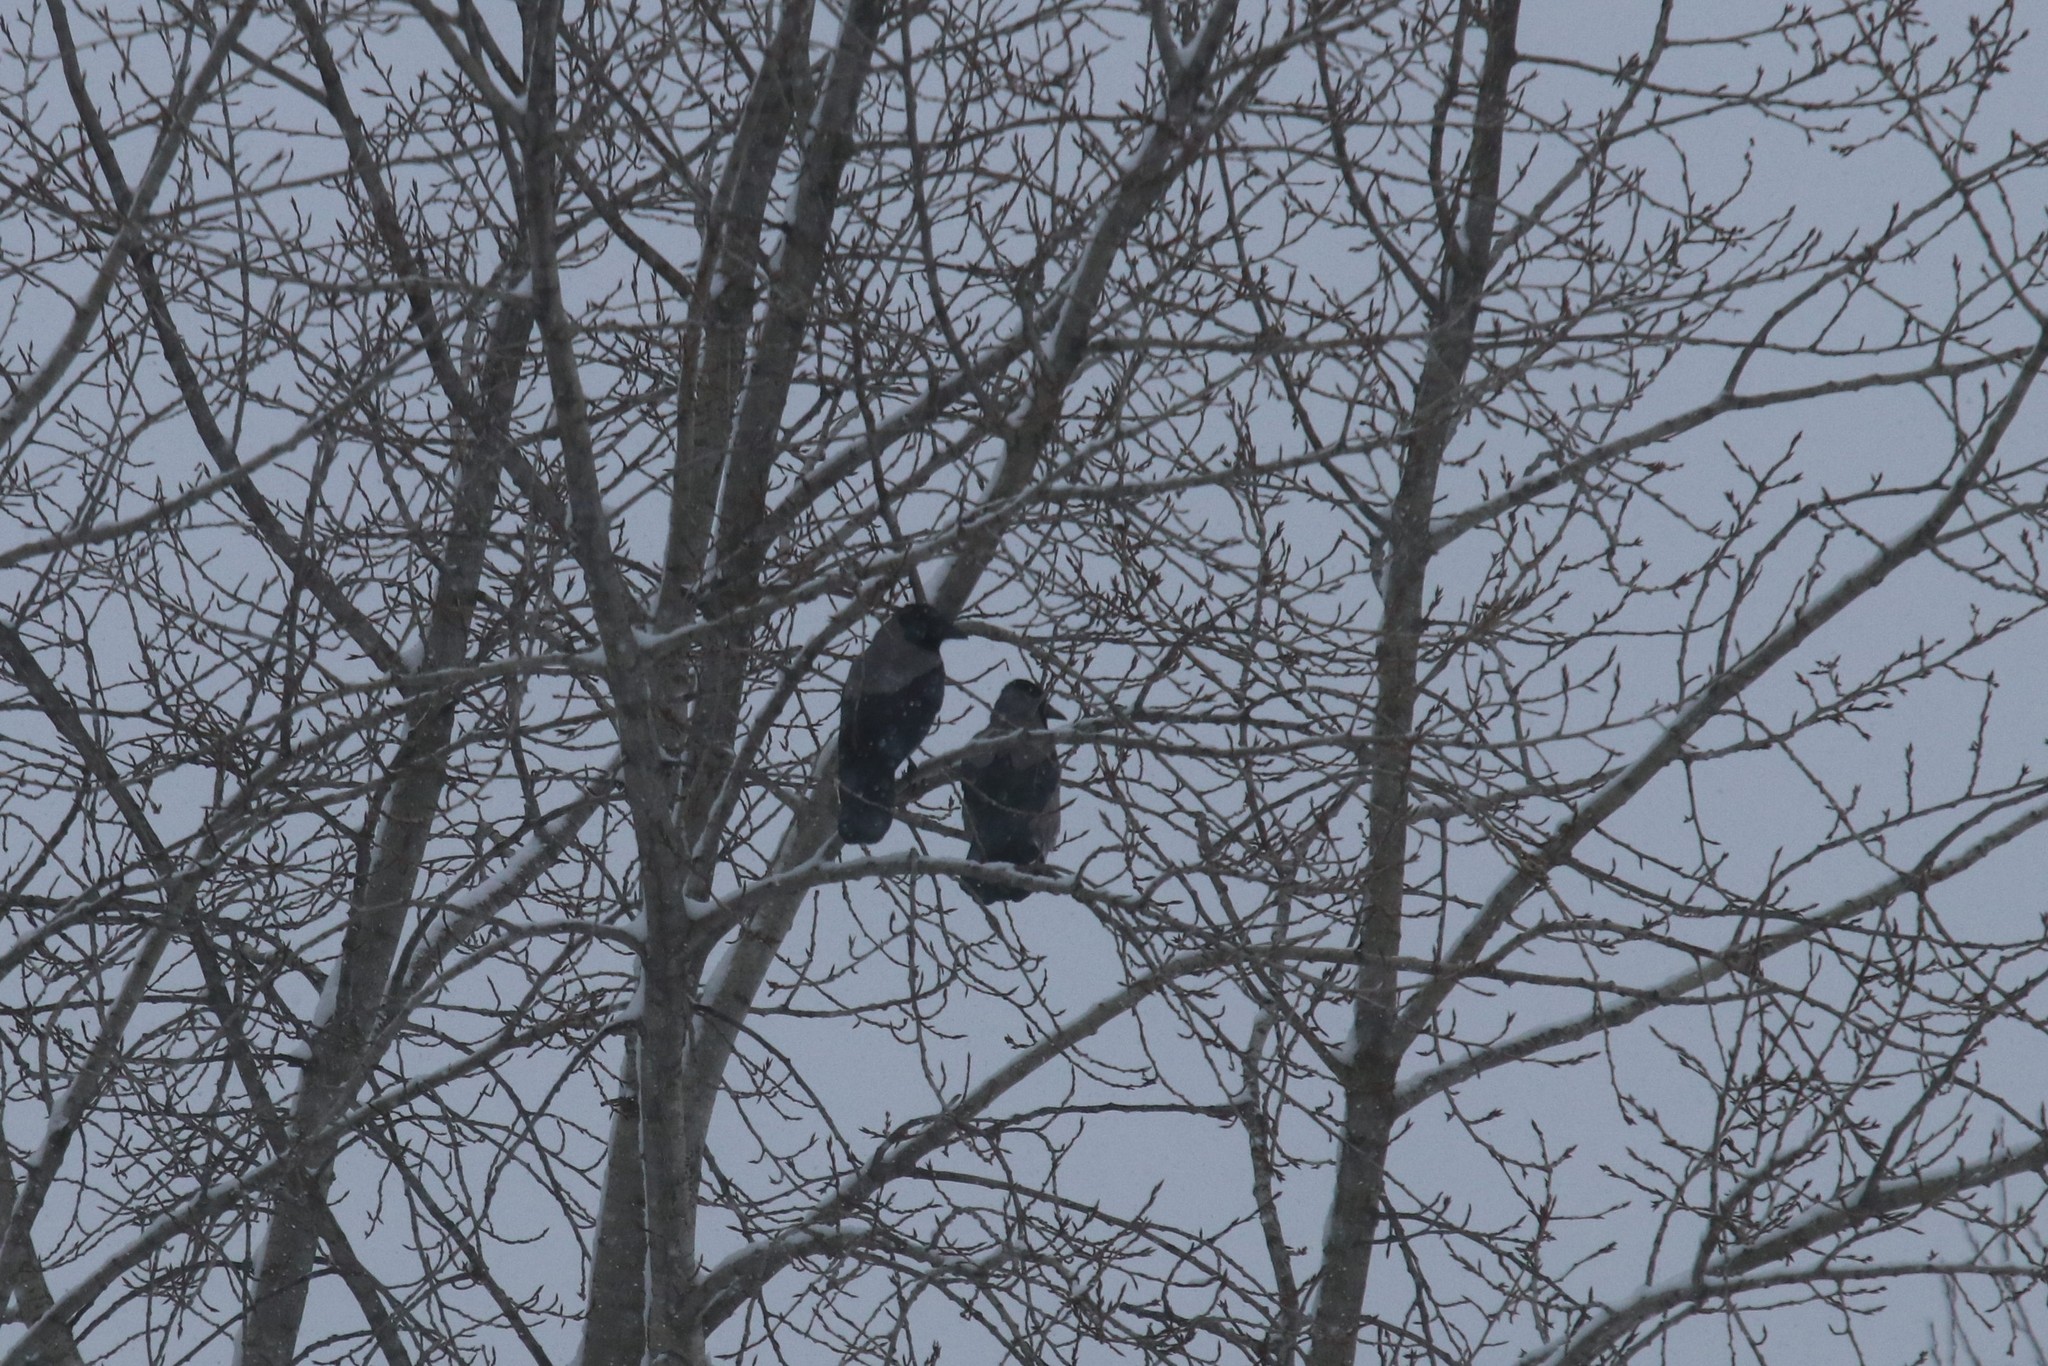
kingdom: Animalia
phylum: Chordata
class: Aves
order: Passeriformes
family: Corvidae
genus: Corvus
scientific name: Corvus cornix
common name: Hooded crow
